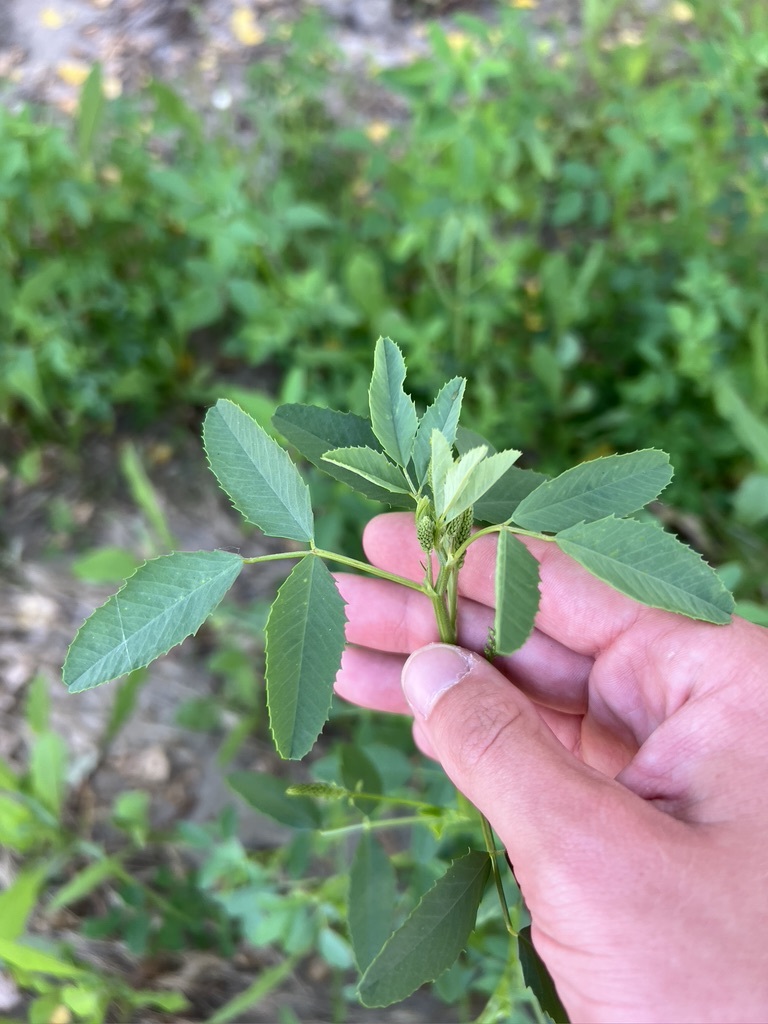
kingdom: Plantae
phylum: Tracheophyta
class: Magnoliopsida
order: Fabales
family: Fabaceae
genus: Melilotus
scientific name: Melilotus albus
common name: White melilot
